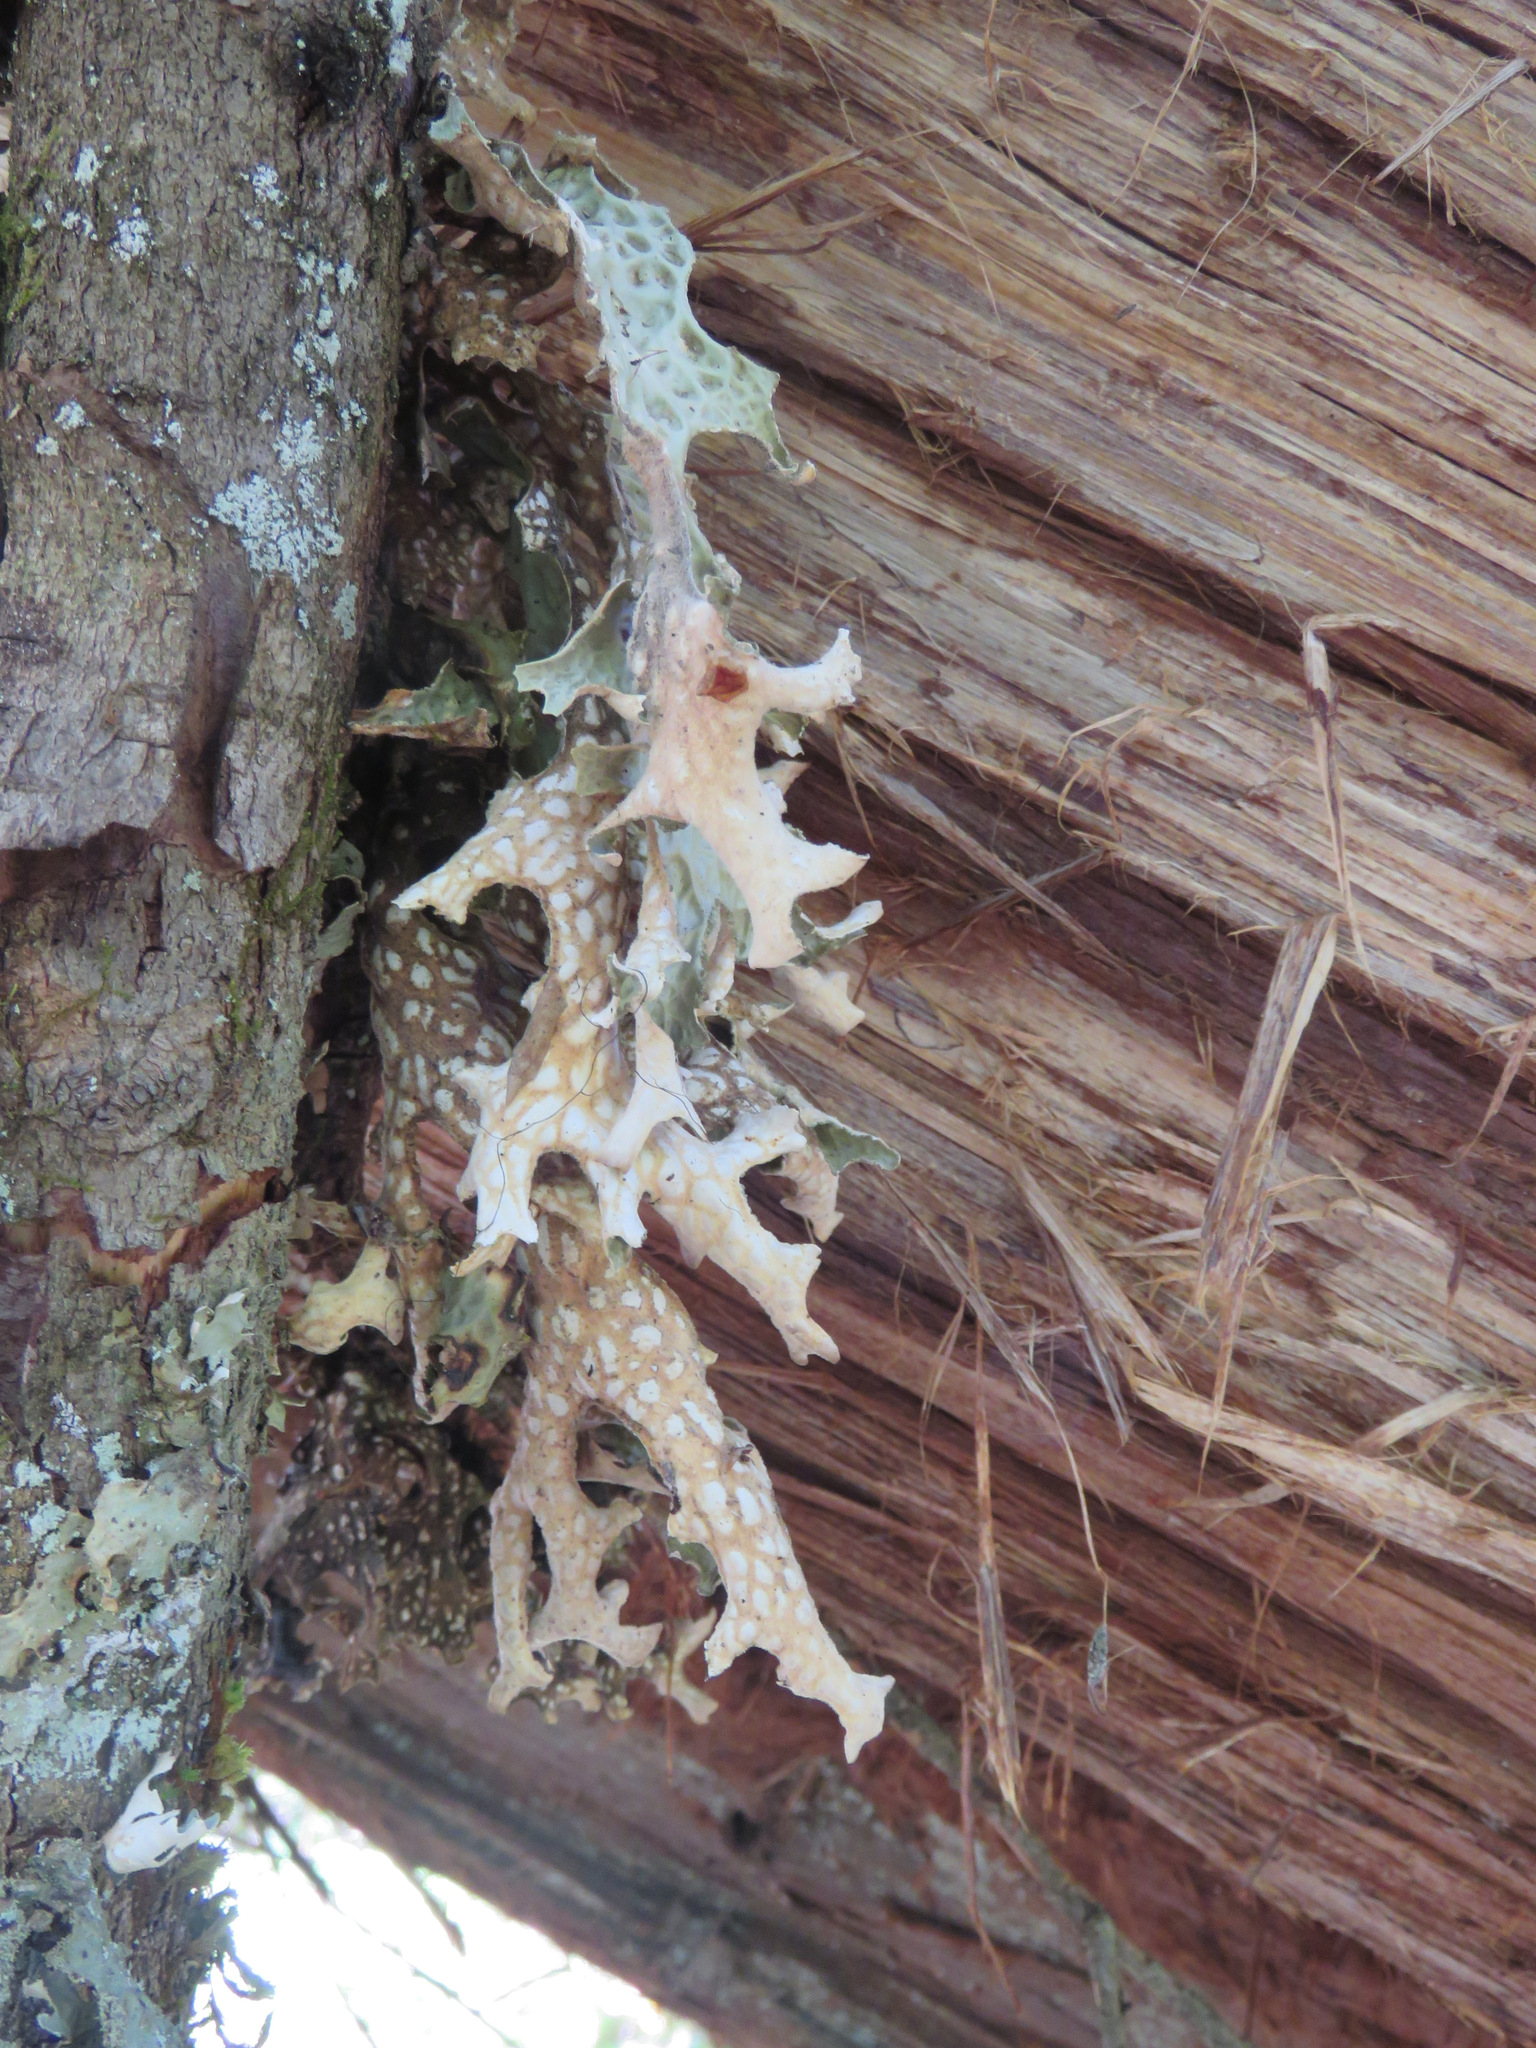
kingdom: Fungi
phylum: Ascomycota
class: Lecanoromycetes
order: Peltigerales
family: Lobariaceae
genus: Lobaria
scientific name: Lobaria pulmonaria
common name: Lungwort
